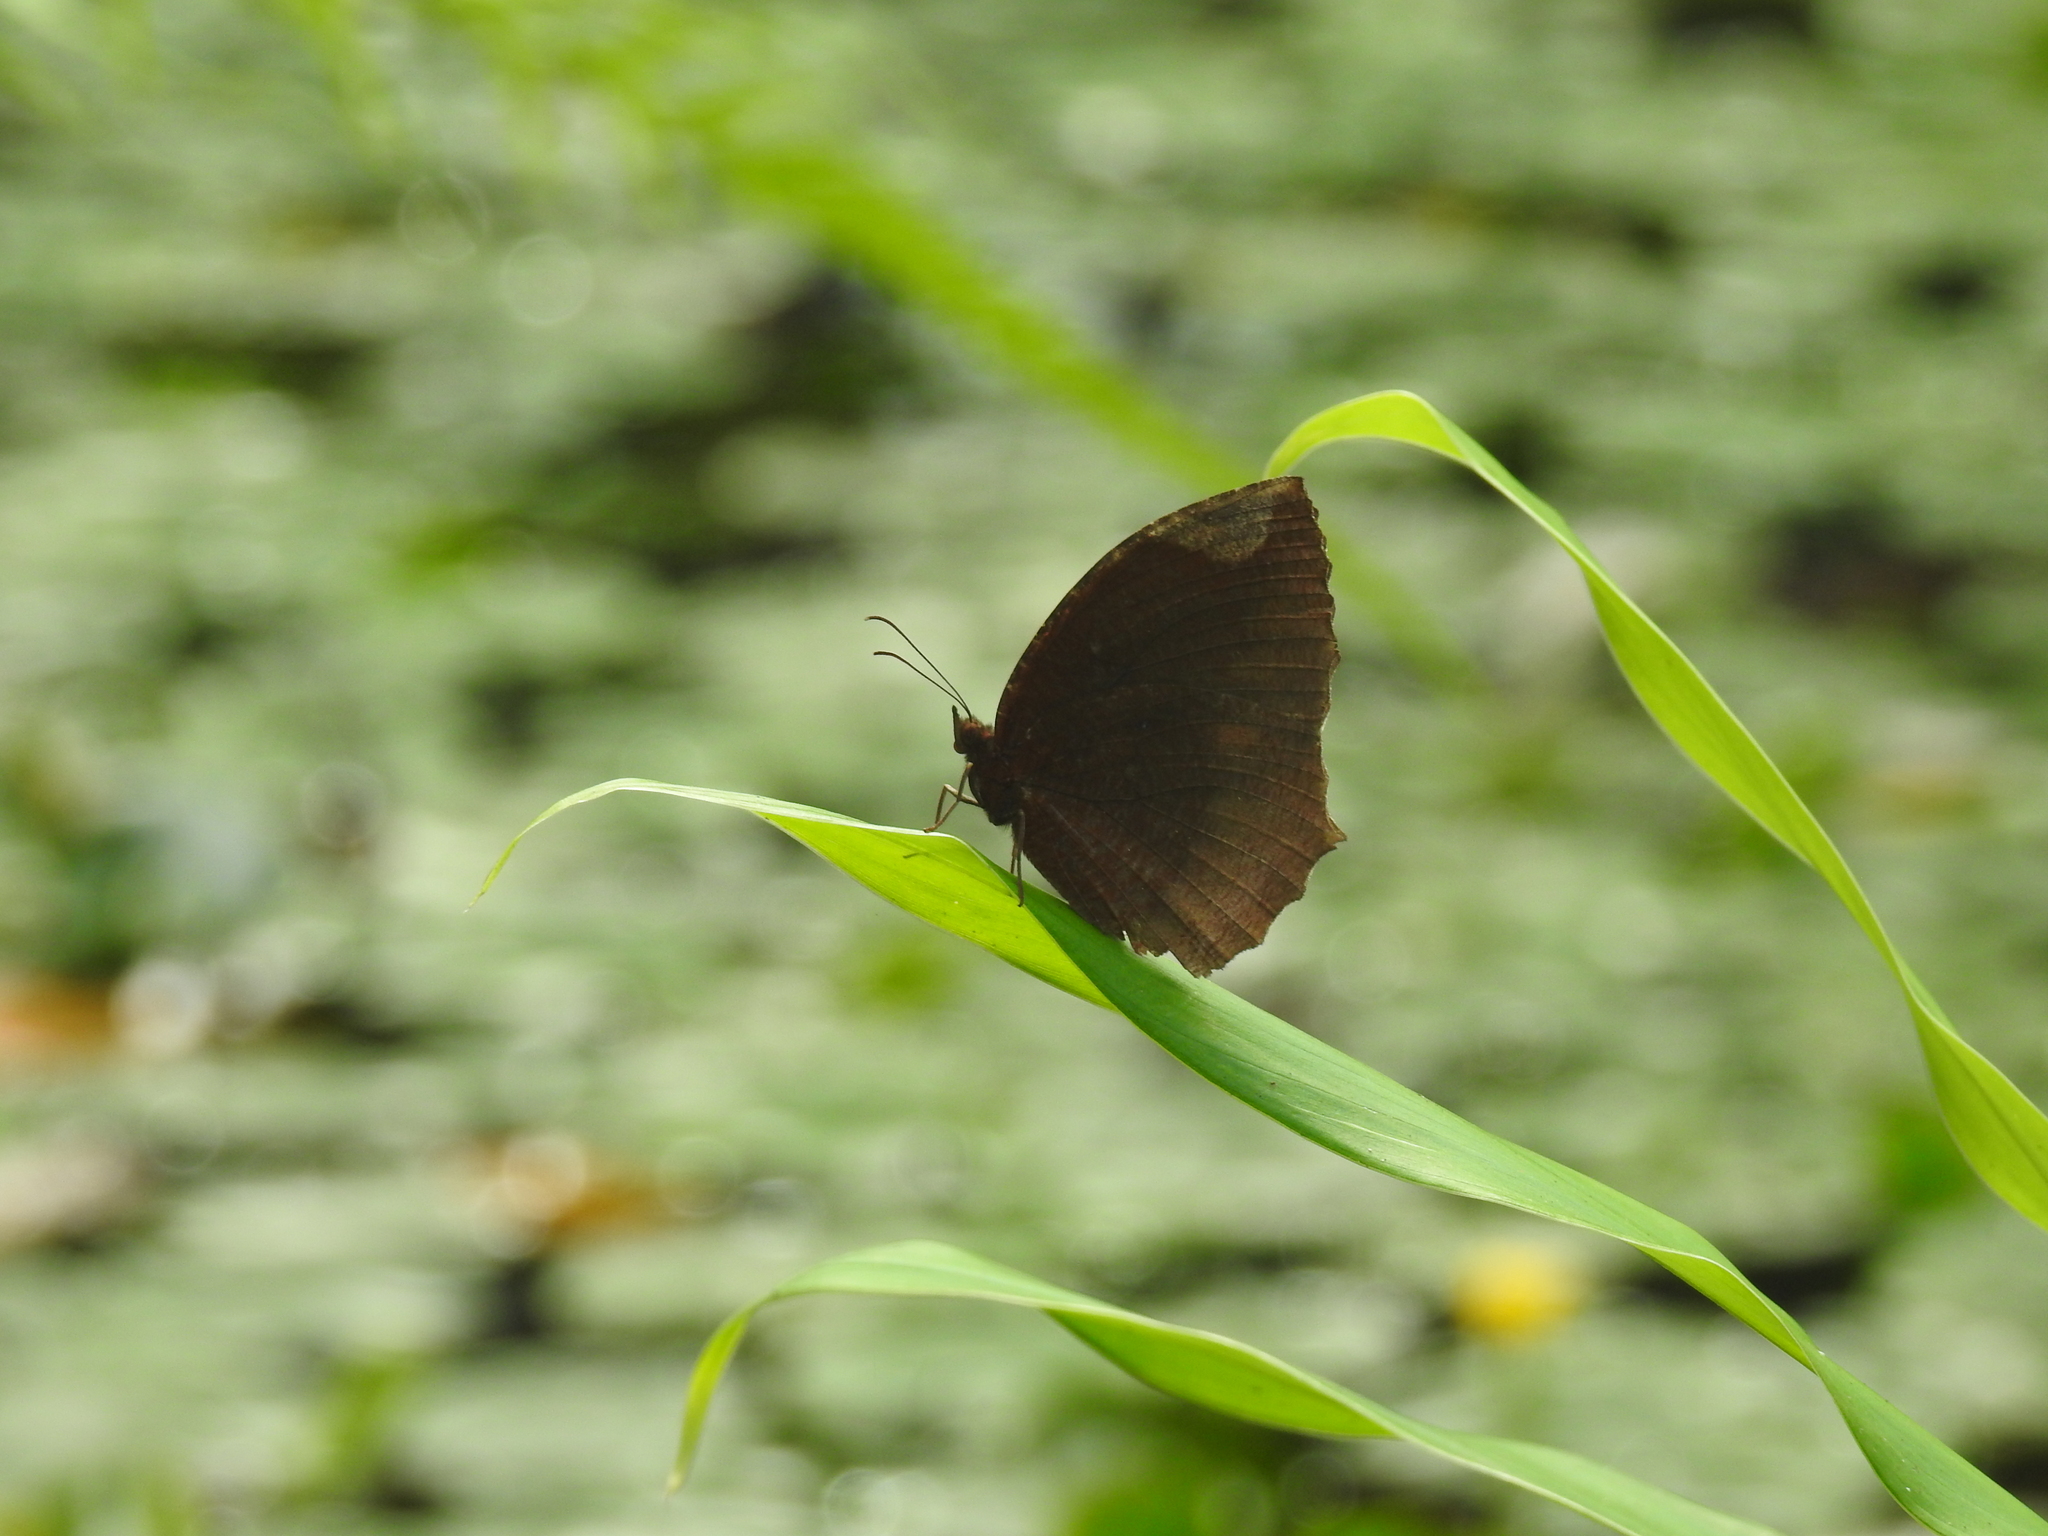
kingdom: Animalia
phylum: Arthropoda
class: Insecta
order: Lepidoptera
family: Nymphalidae
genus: Elymnias
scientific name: Elymnias hypermnestra
